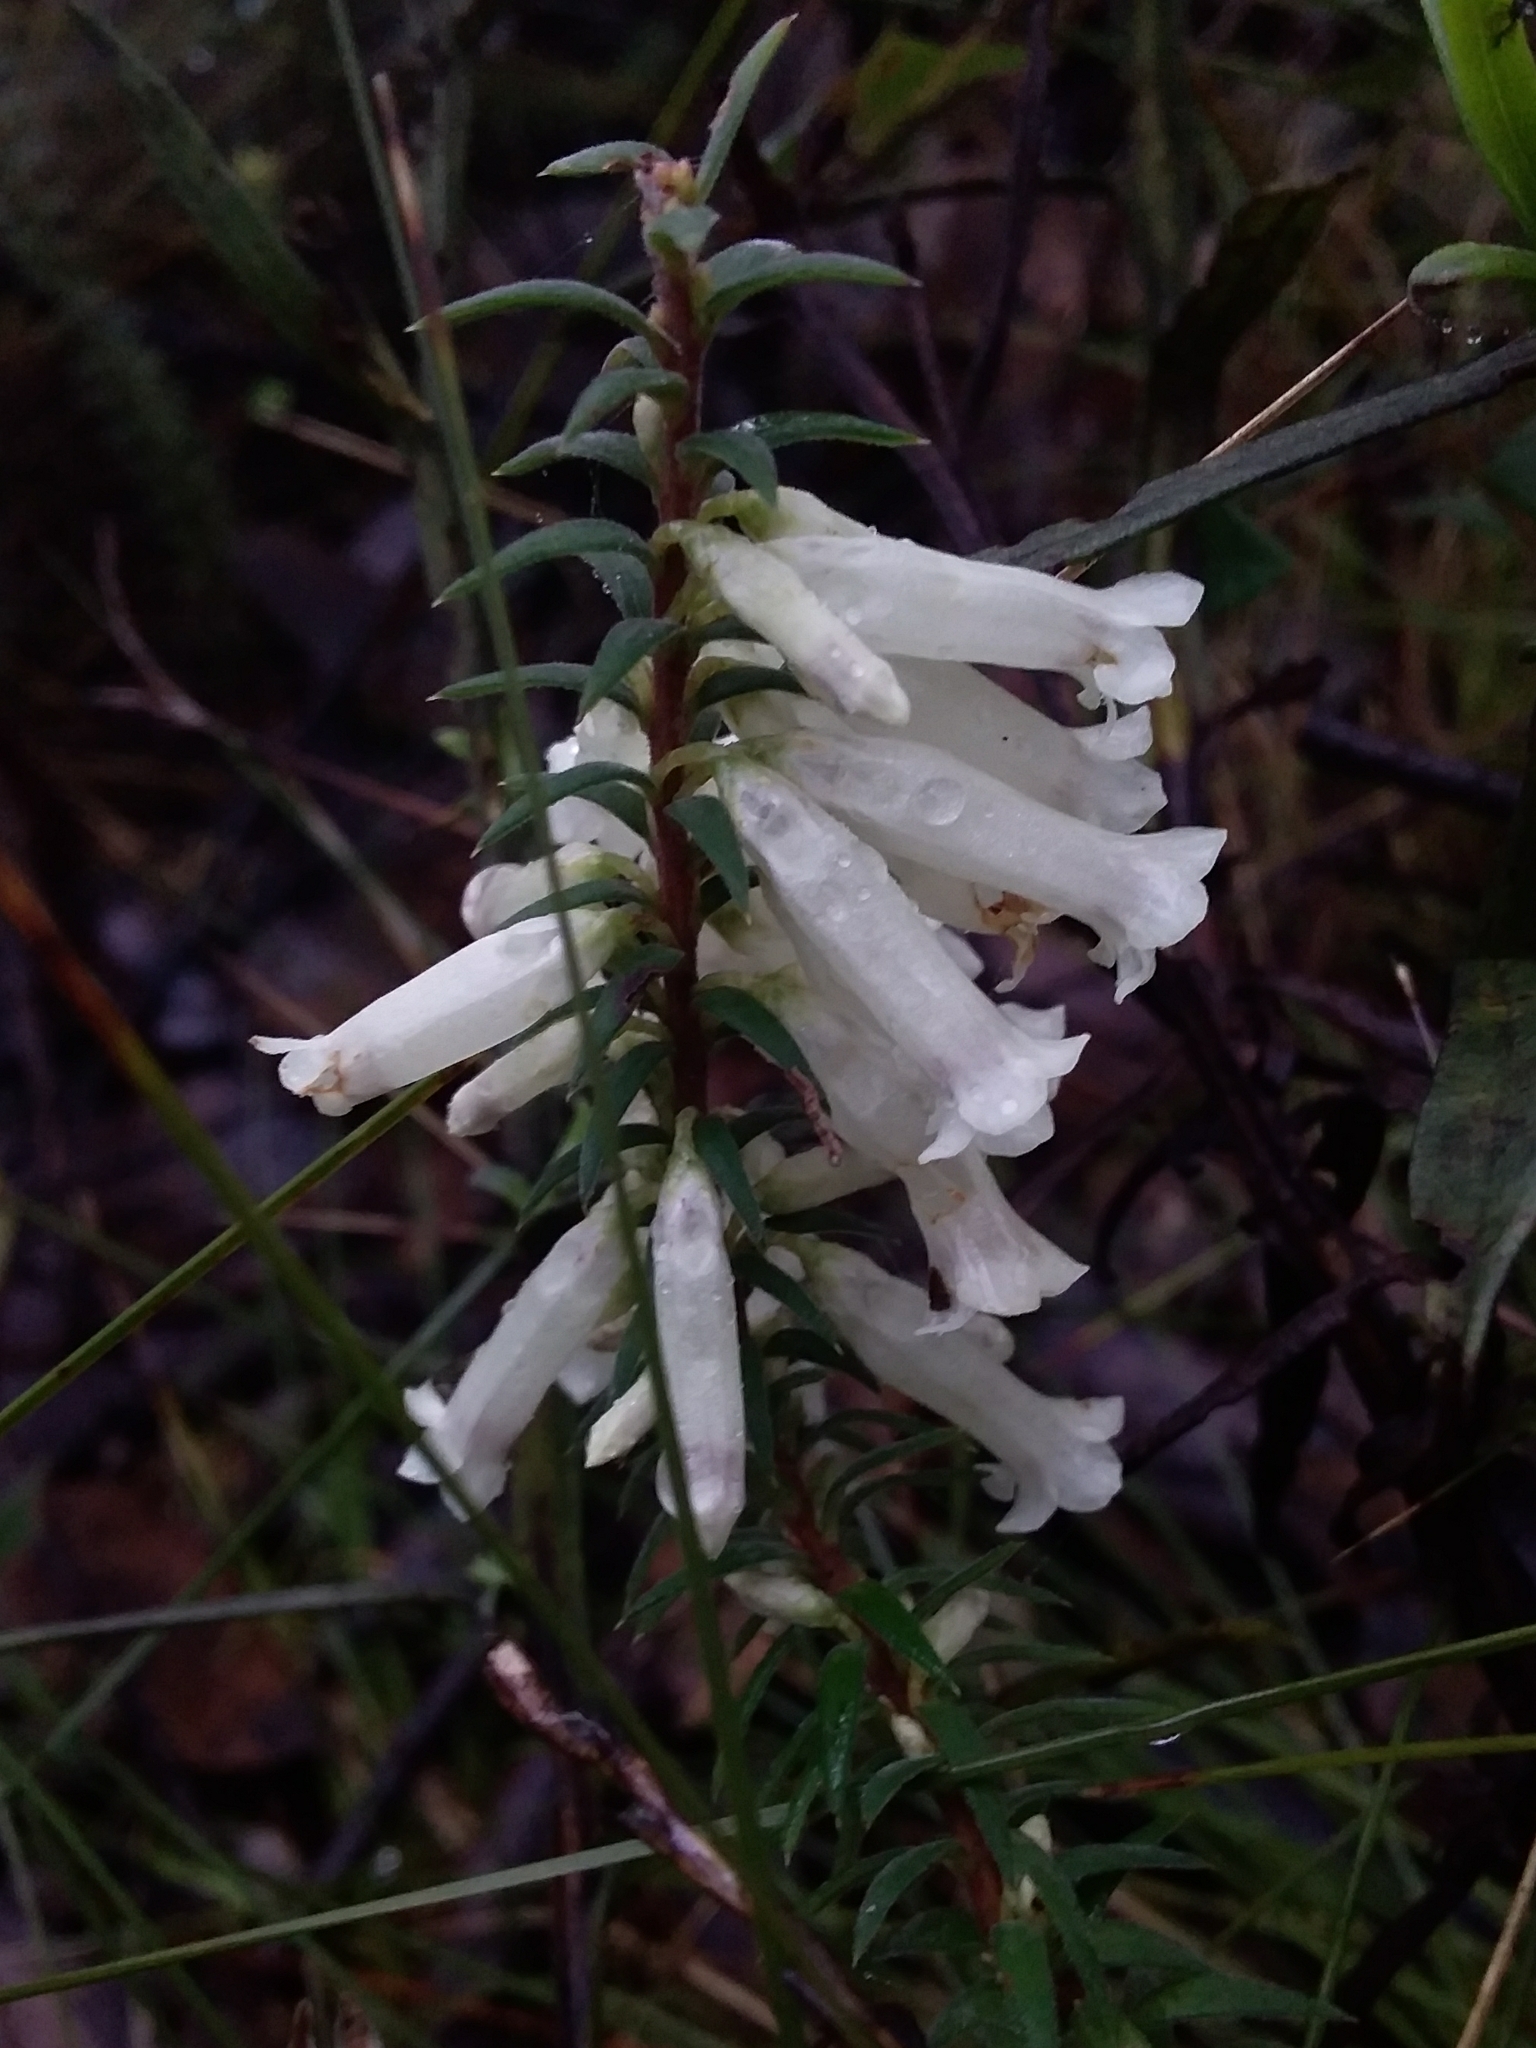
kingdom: Plantae
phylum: Tracheophyta
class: Magnoliopsida
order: Ericales
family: Ericaceae
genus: Epacris
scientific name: Epacris impressa
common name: Common-heath
